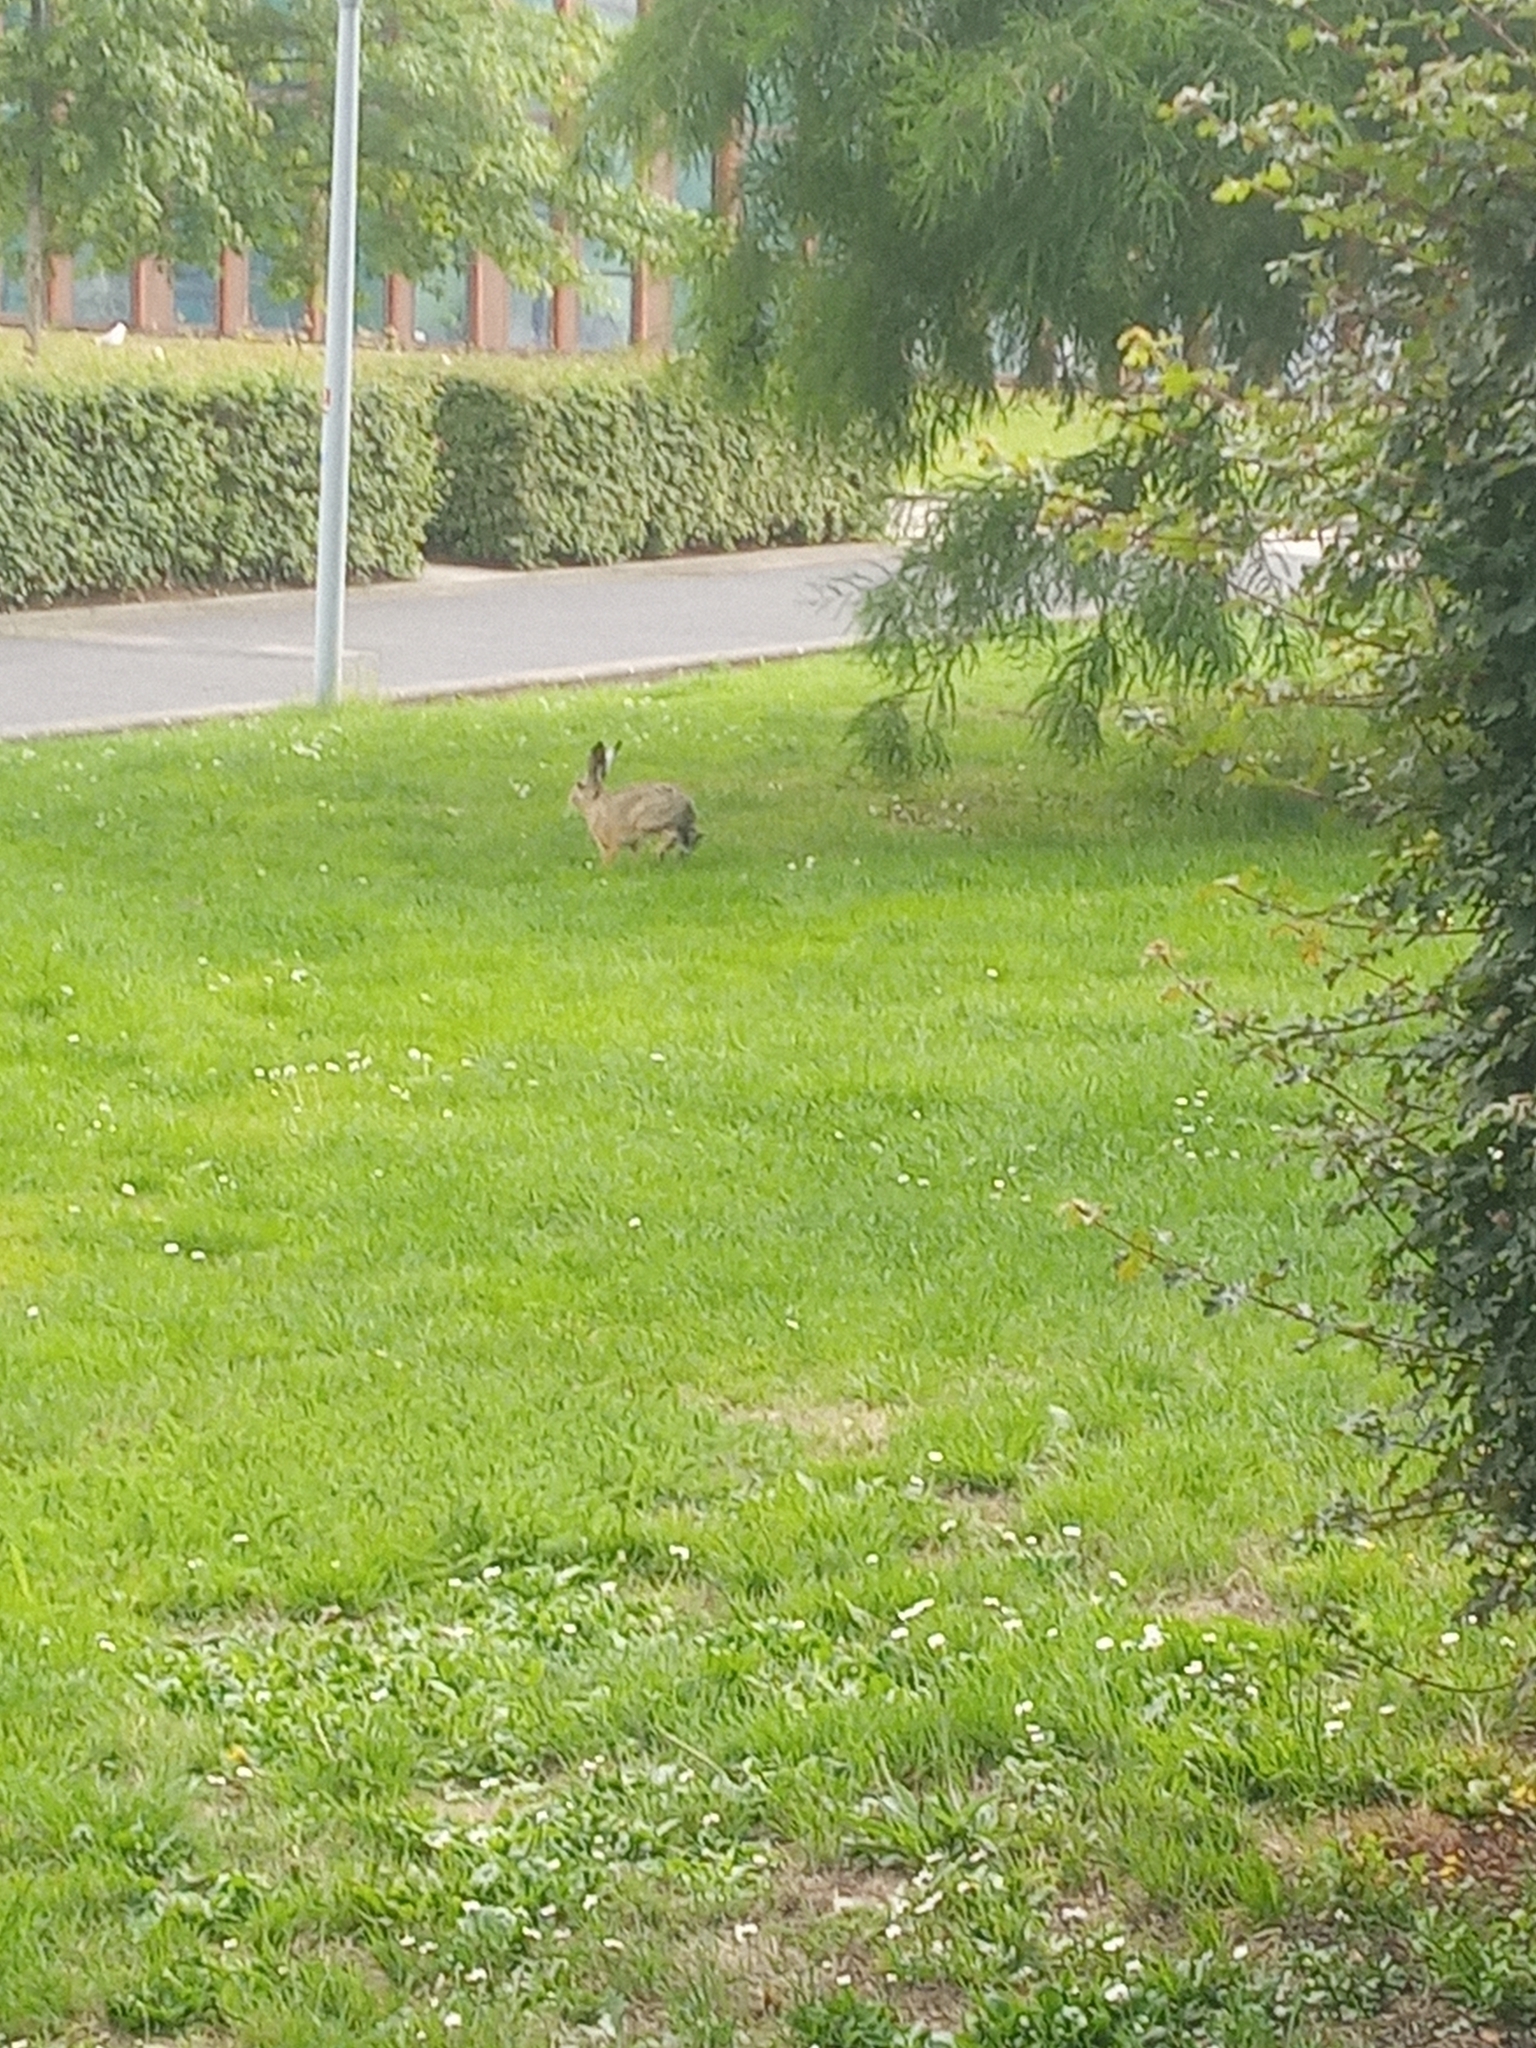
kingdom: Animalia
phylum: Chordata
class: Mammalia
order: Lagomorpha
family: Leporidae
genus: Lepus
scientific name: Lepus europaeus
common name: European hare
